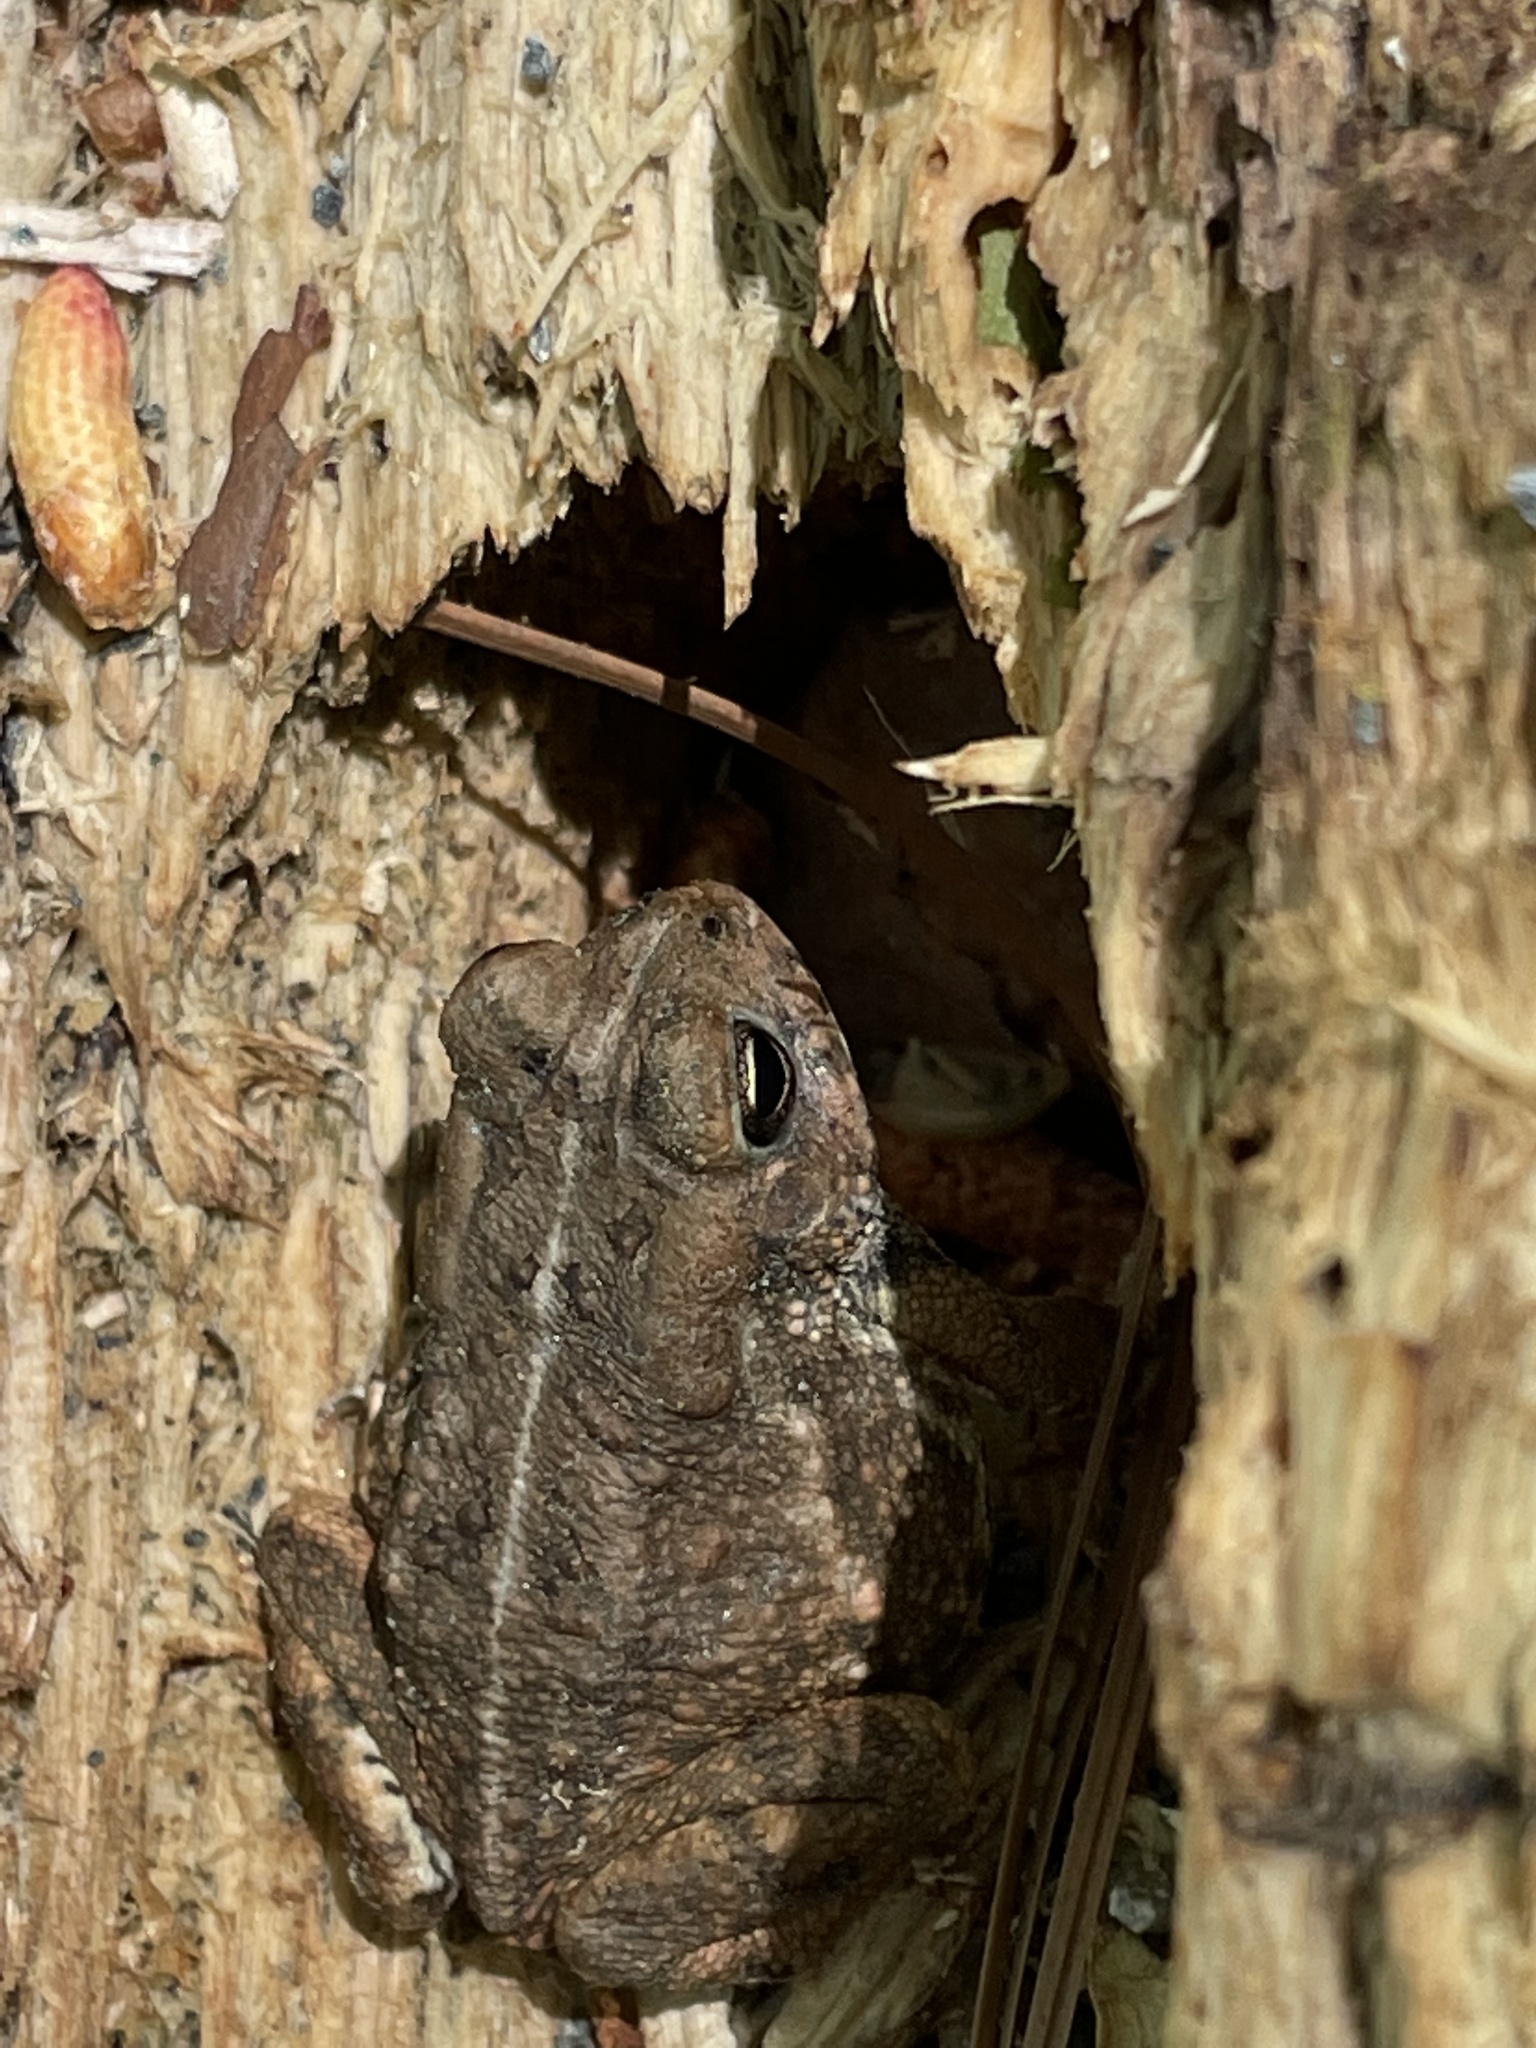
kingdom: Animalia
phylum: Chordata
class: Amphibia
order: Anura
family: Bufonidae
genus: Anaxyrus
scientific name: Anaxyrus fowleri
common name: Fowler's toad
